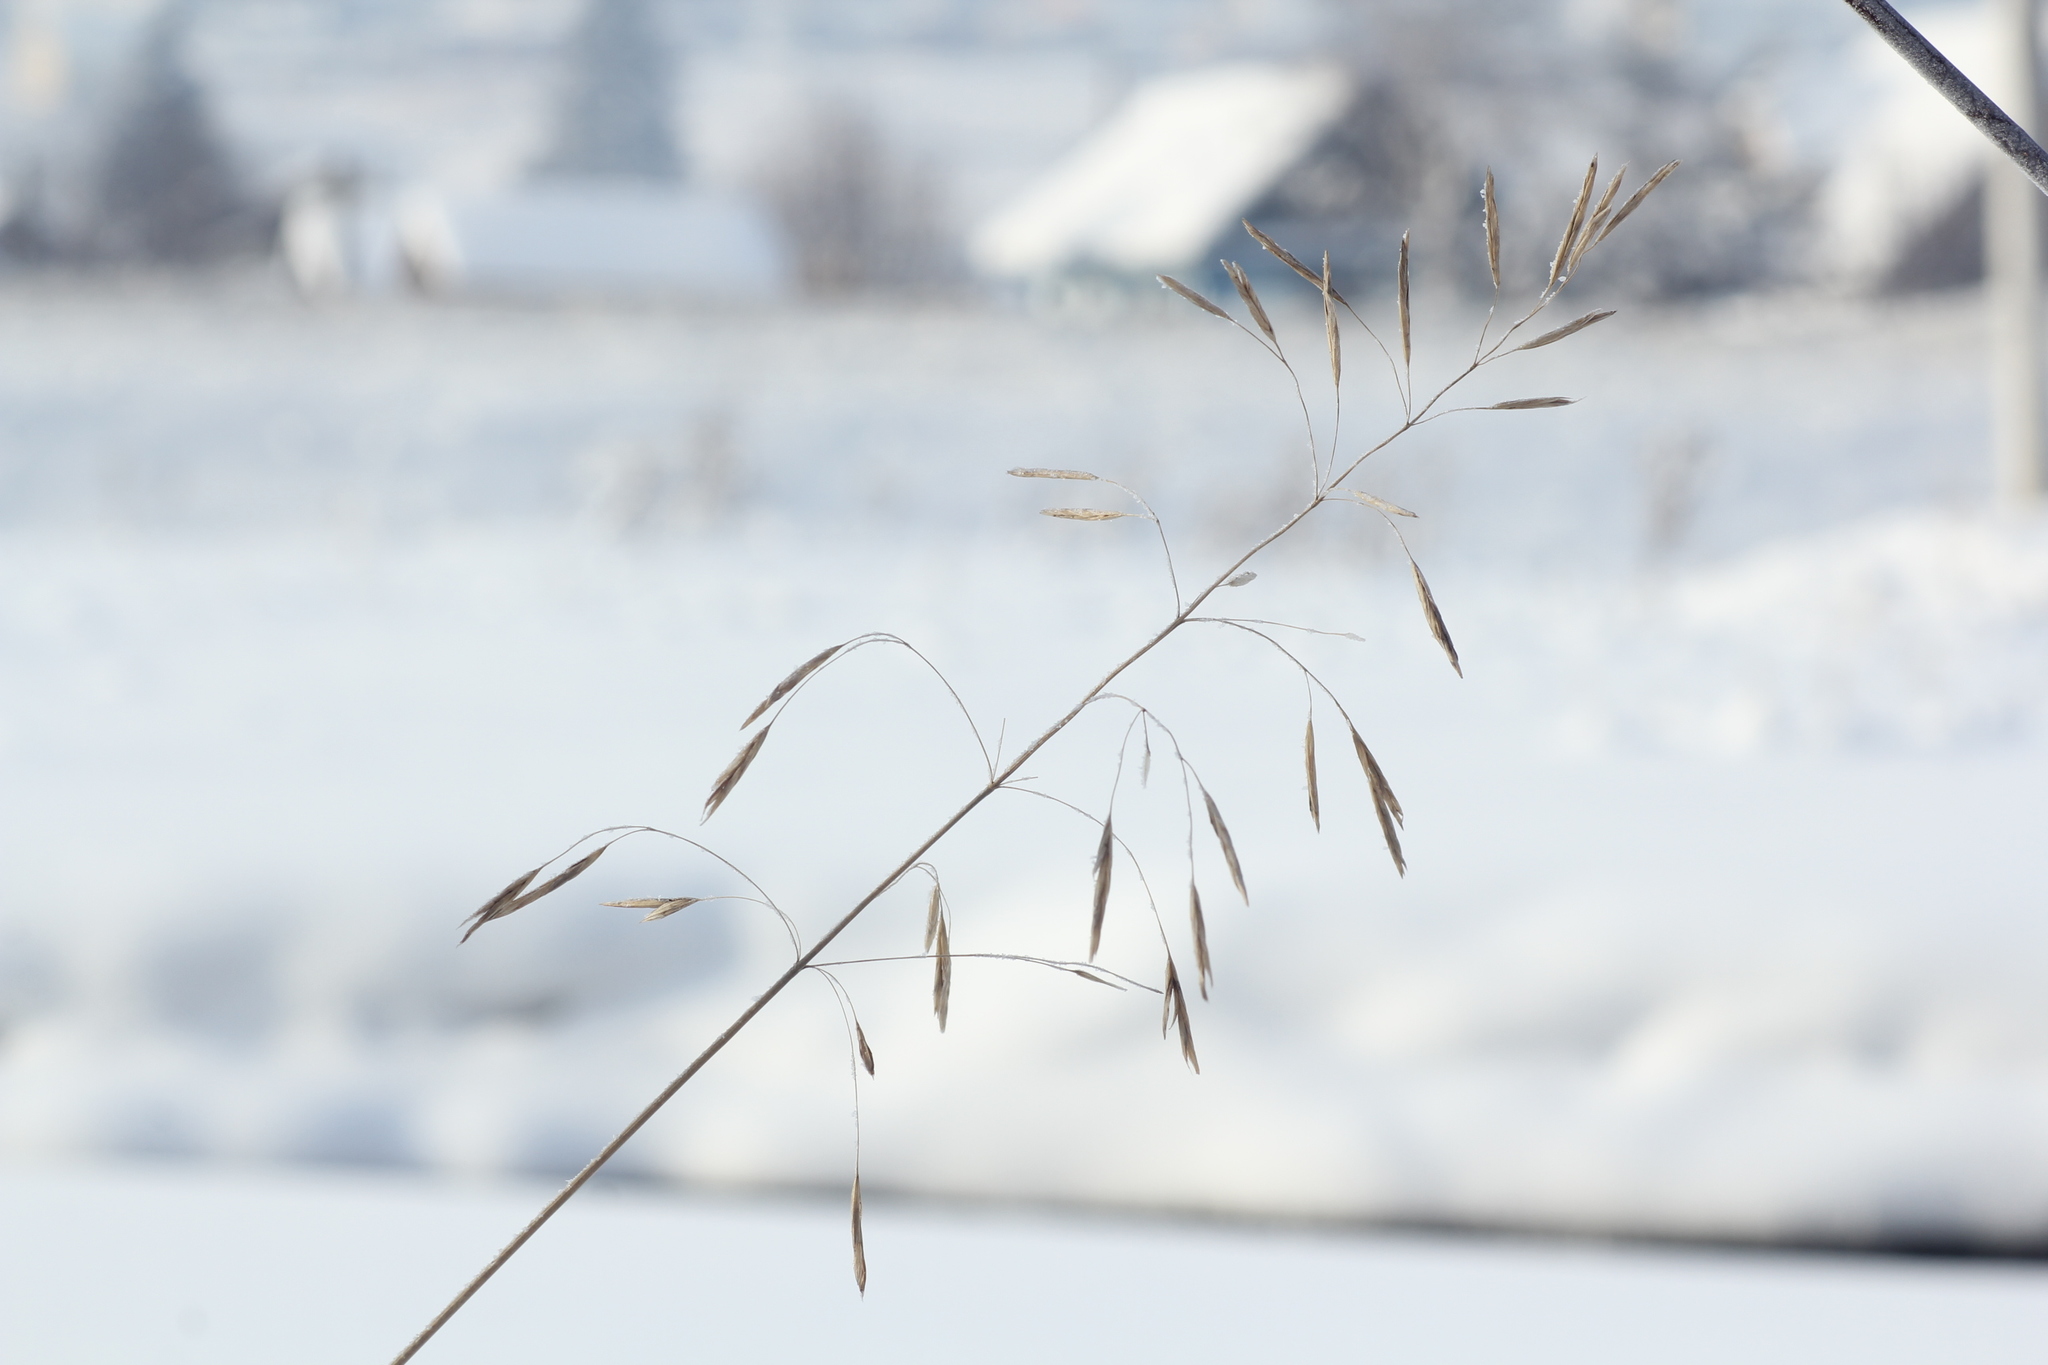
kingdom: Plantae
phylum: Tracheophyta
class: Liliopsida
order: Poales
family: Poaceae
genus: Bromus
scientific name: Bromus inermis
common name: Smooth brome
